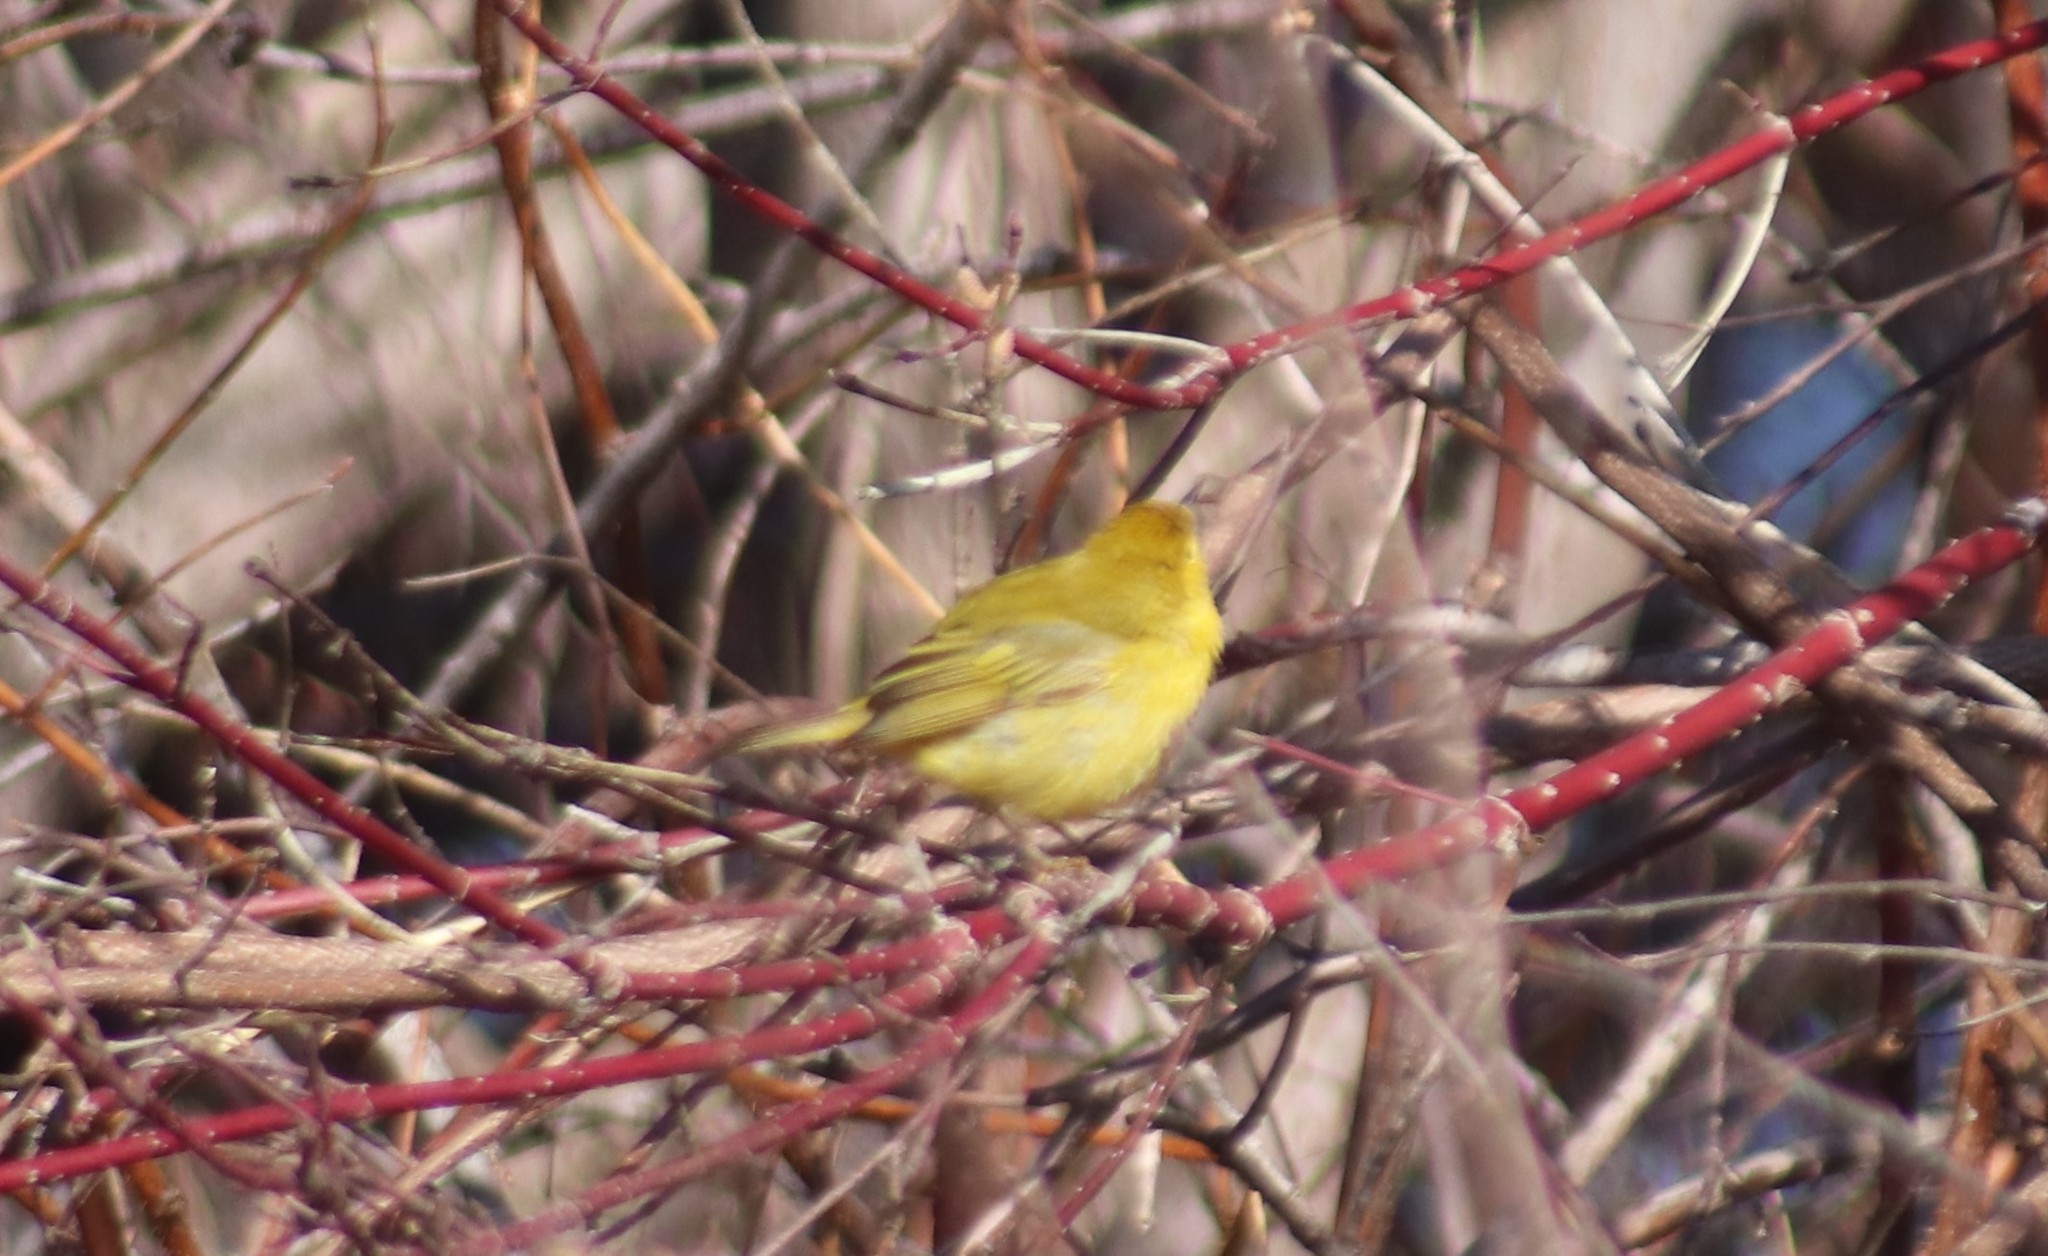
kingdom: Animalia
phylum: Chordata
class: Aves
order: Passeriformes
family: Parulidae
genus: Setophaga
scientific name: Setophaga petechia
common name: Yellow warbler
